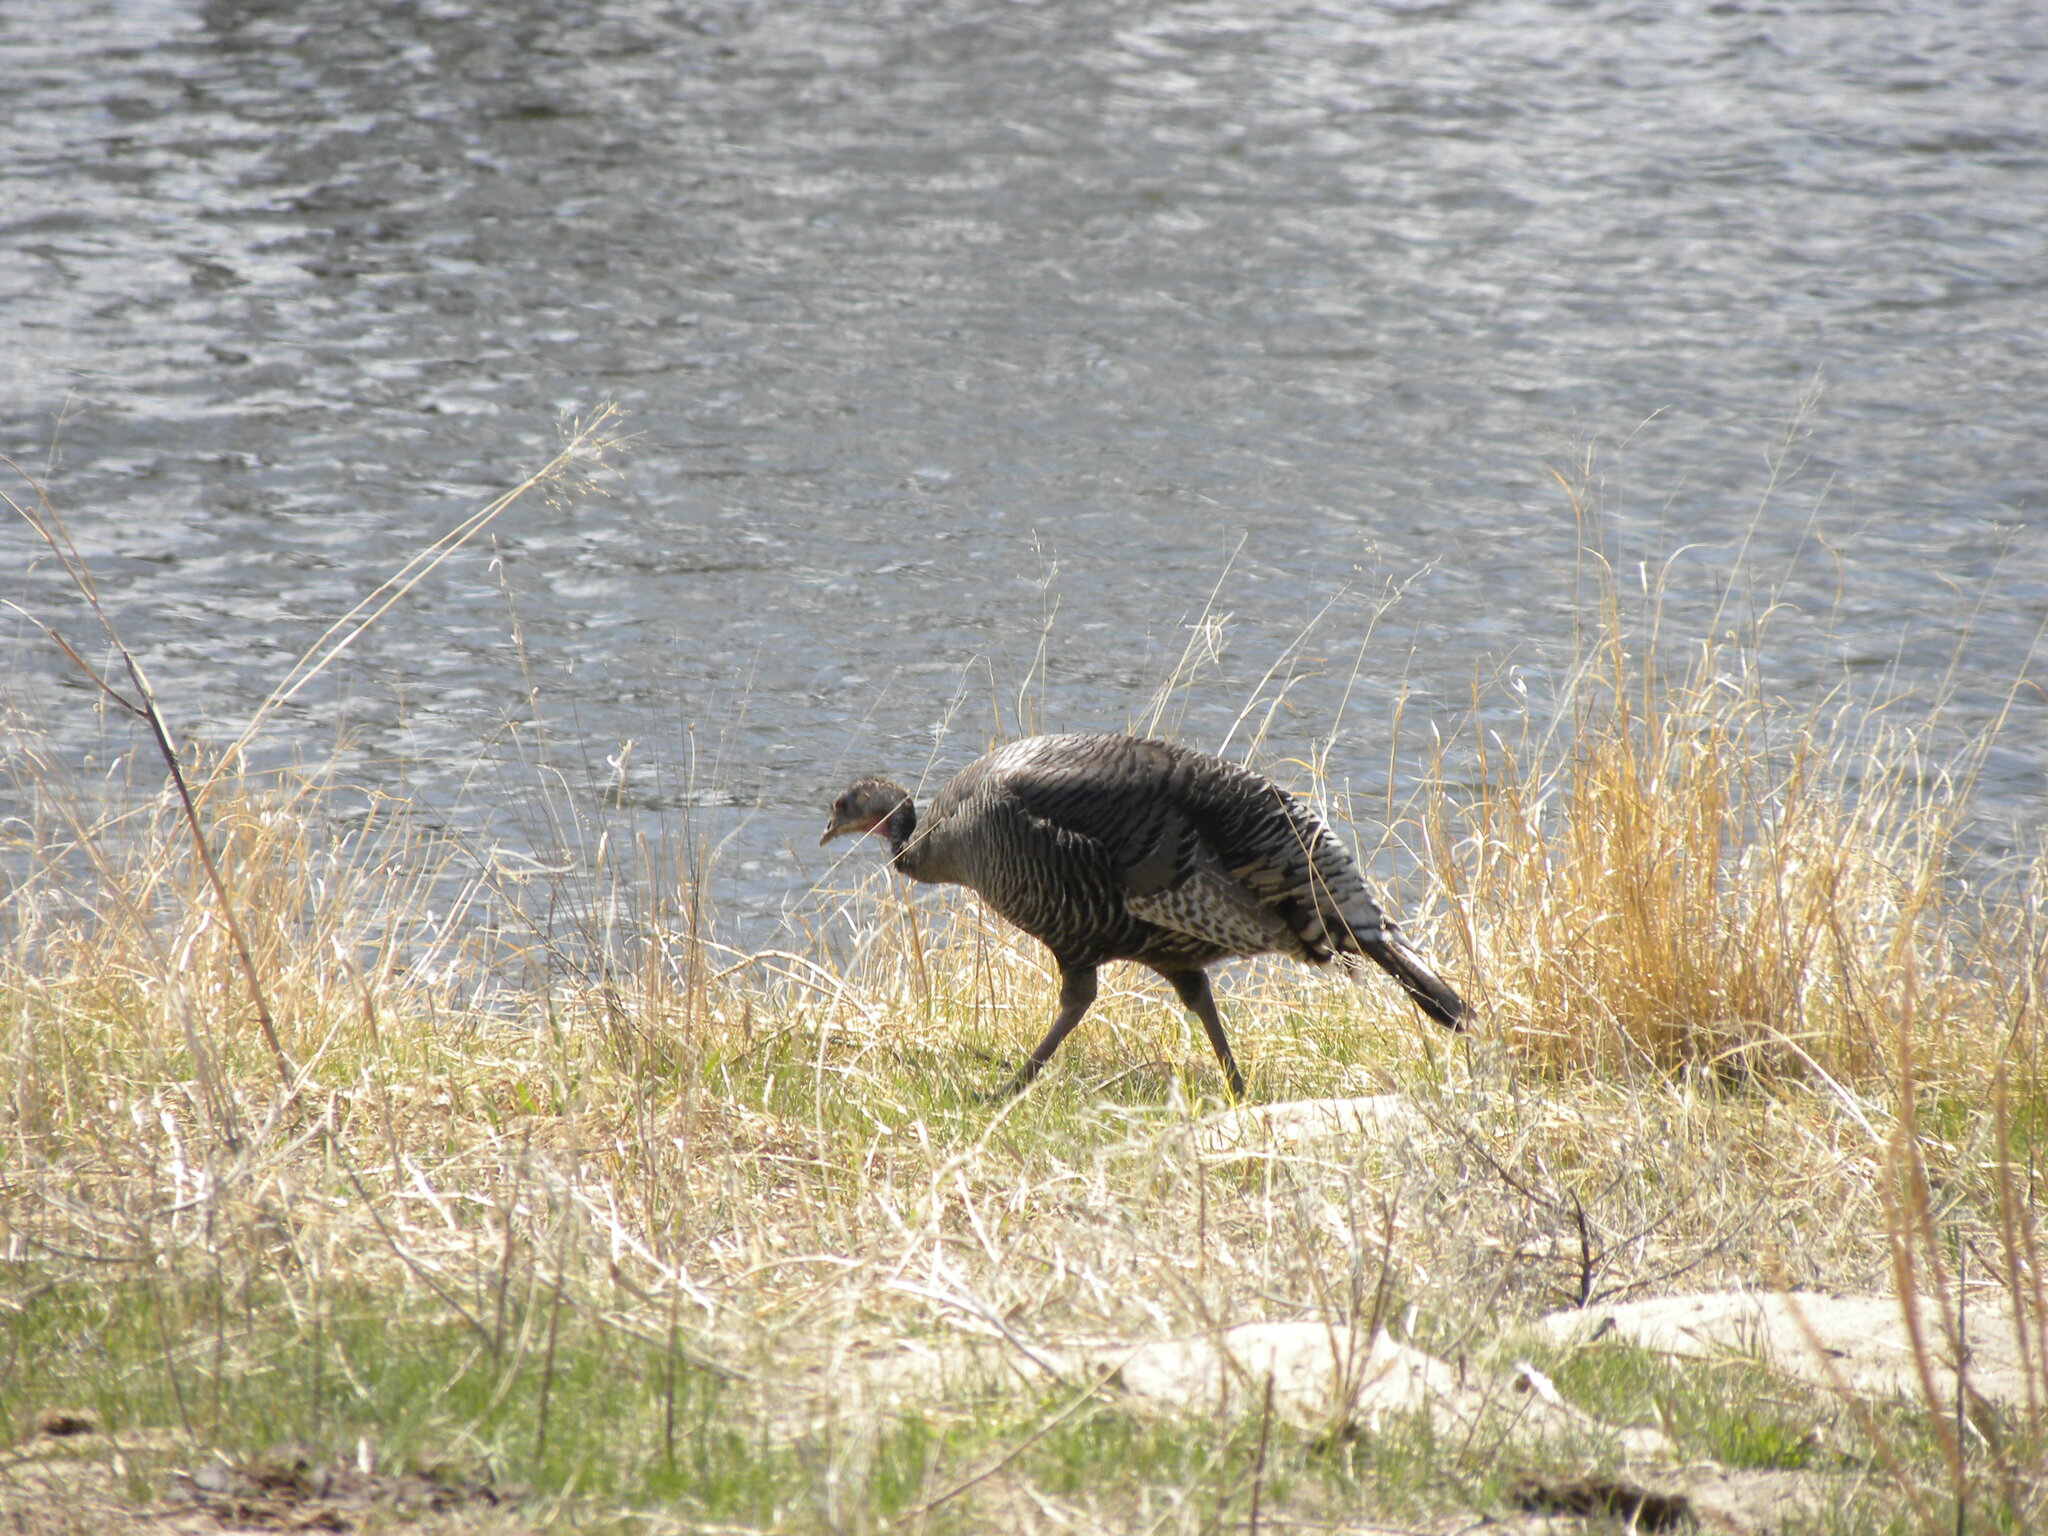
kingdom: Animalia
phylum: Chordata
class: Aves
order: Galliformes
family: Phasianidae
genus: Meleagris
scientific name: Meleagris gallopavo
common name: Wild turkey
